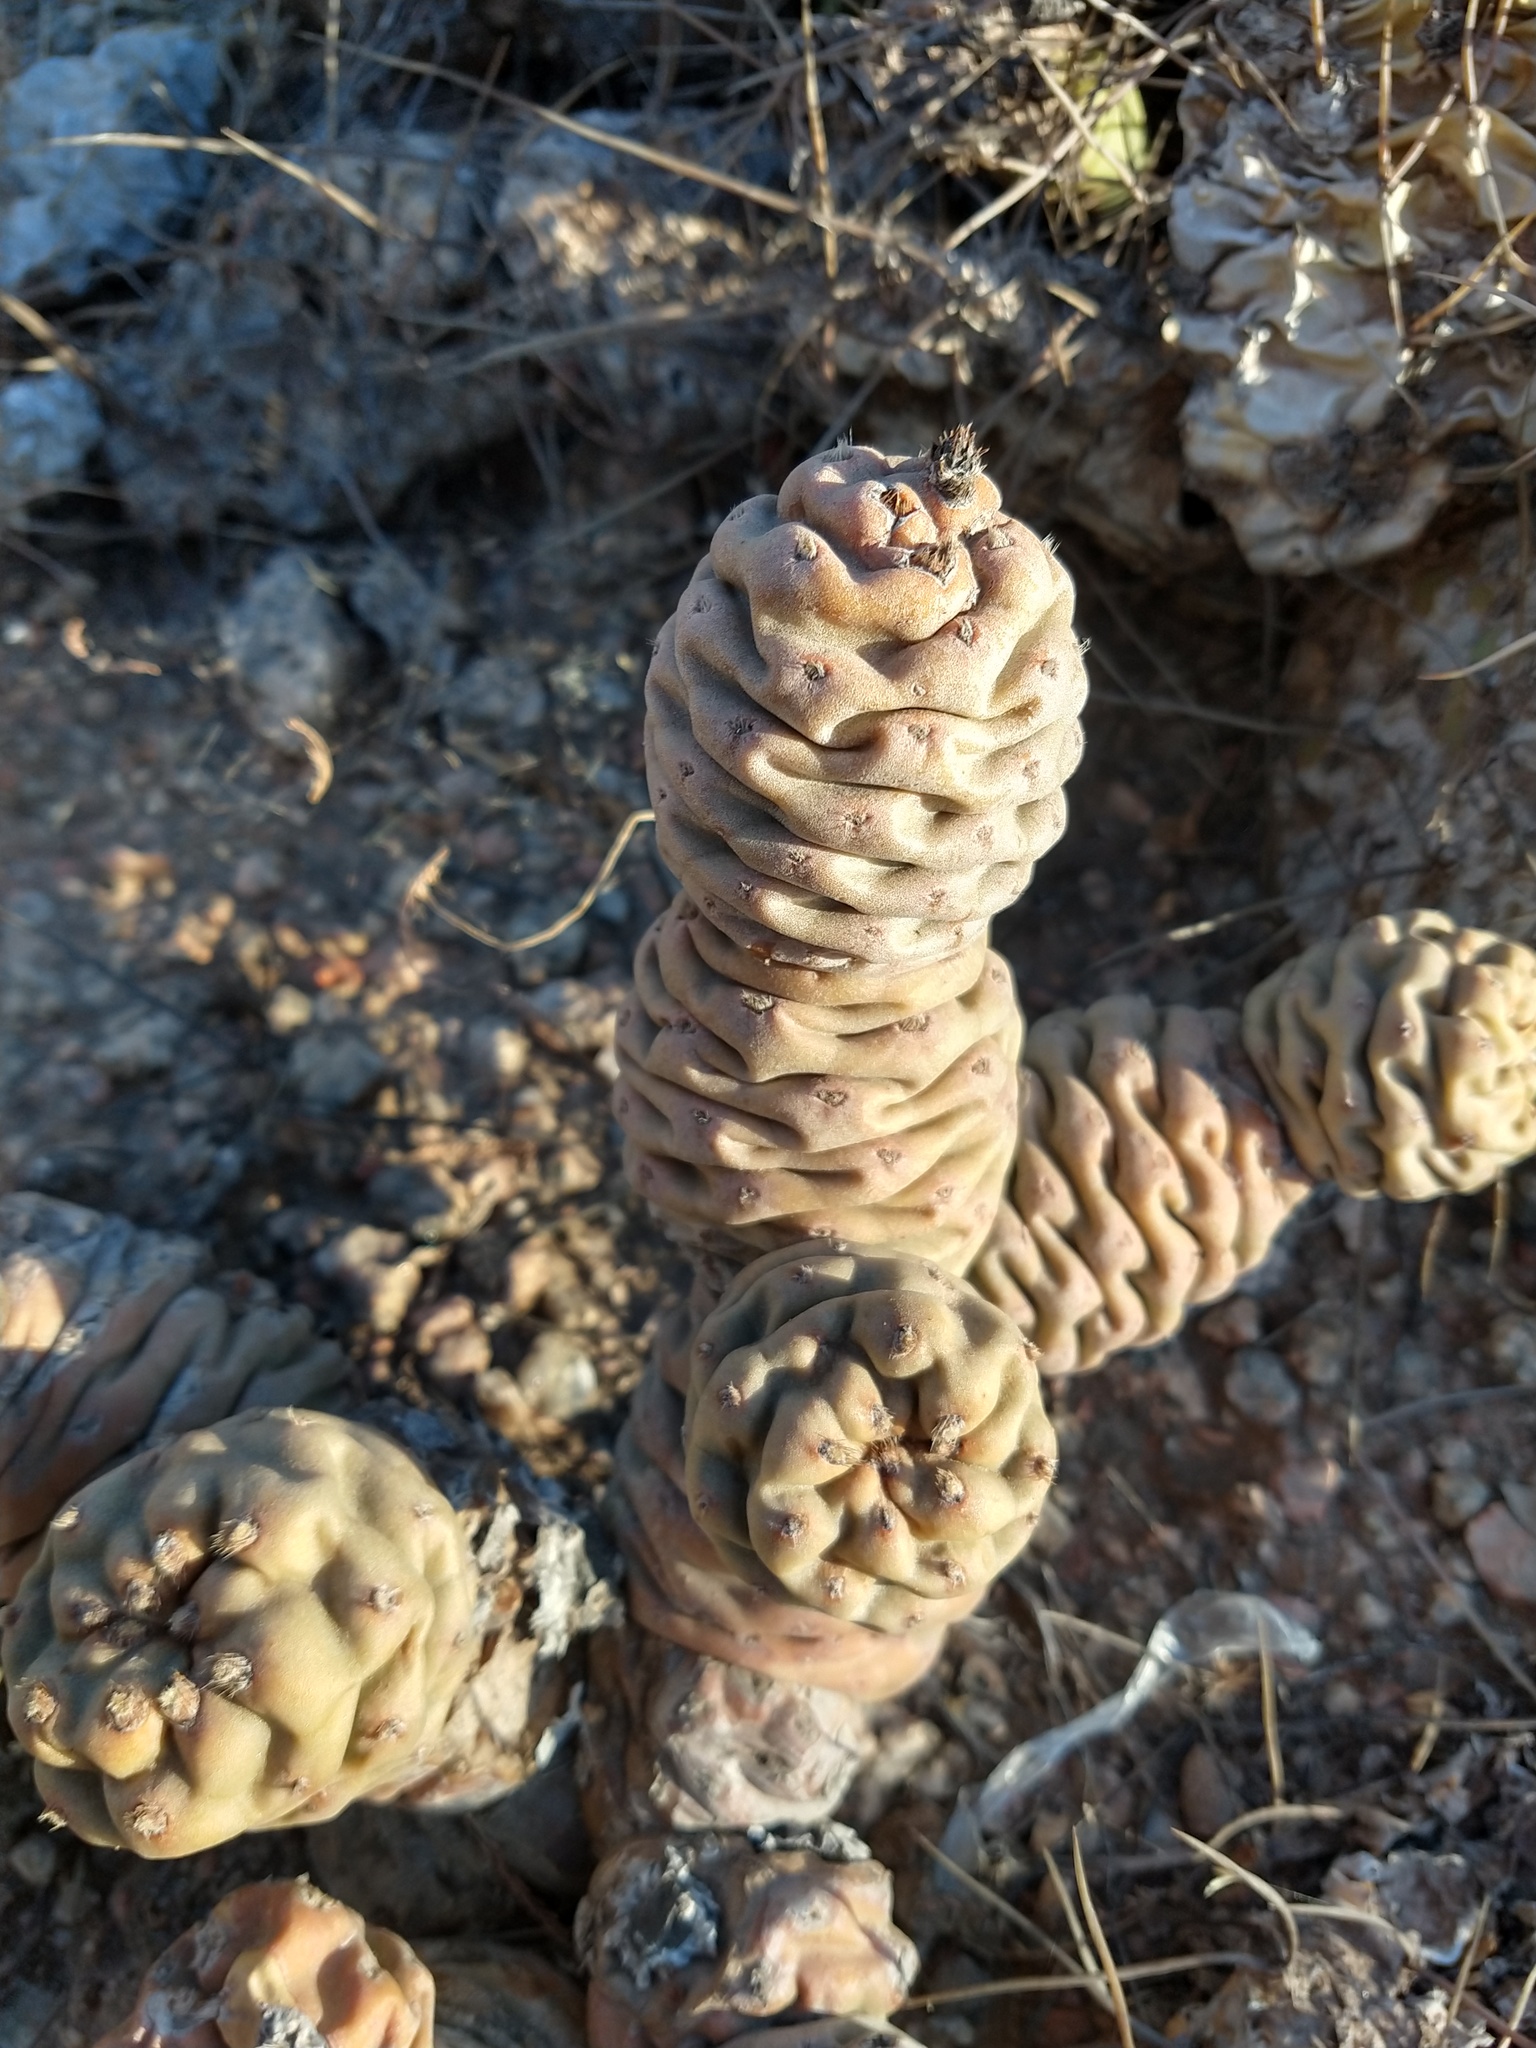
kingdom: Plantae
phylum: Tracheophyta
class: Magnoliopsida
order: Caryophyllales
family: Cactaceae
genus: Tephrocactus
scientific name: Tephrocactus articulatus
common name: Paper cactus
